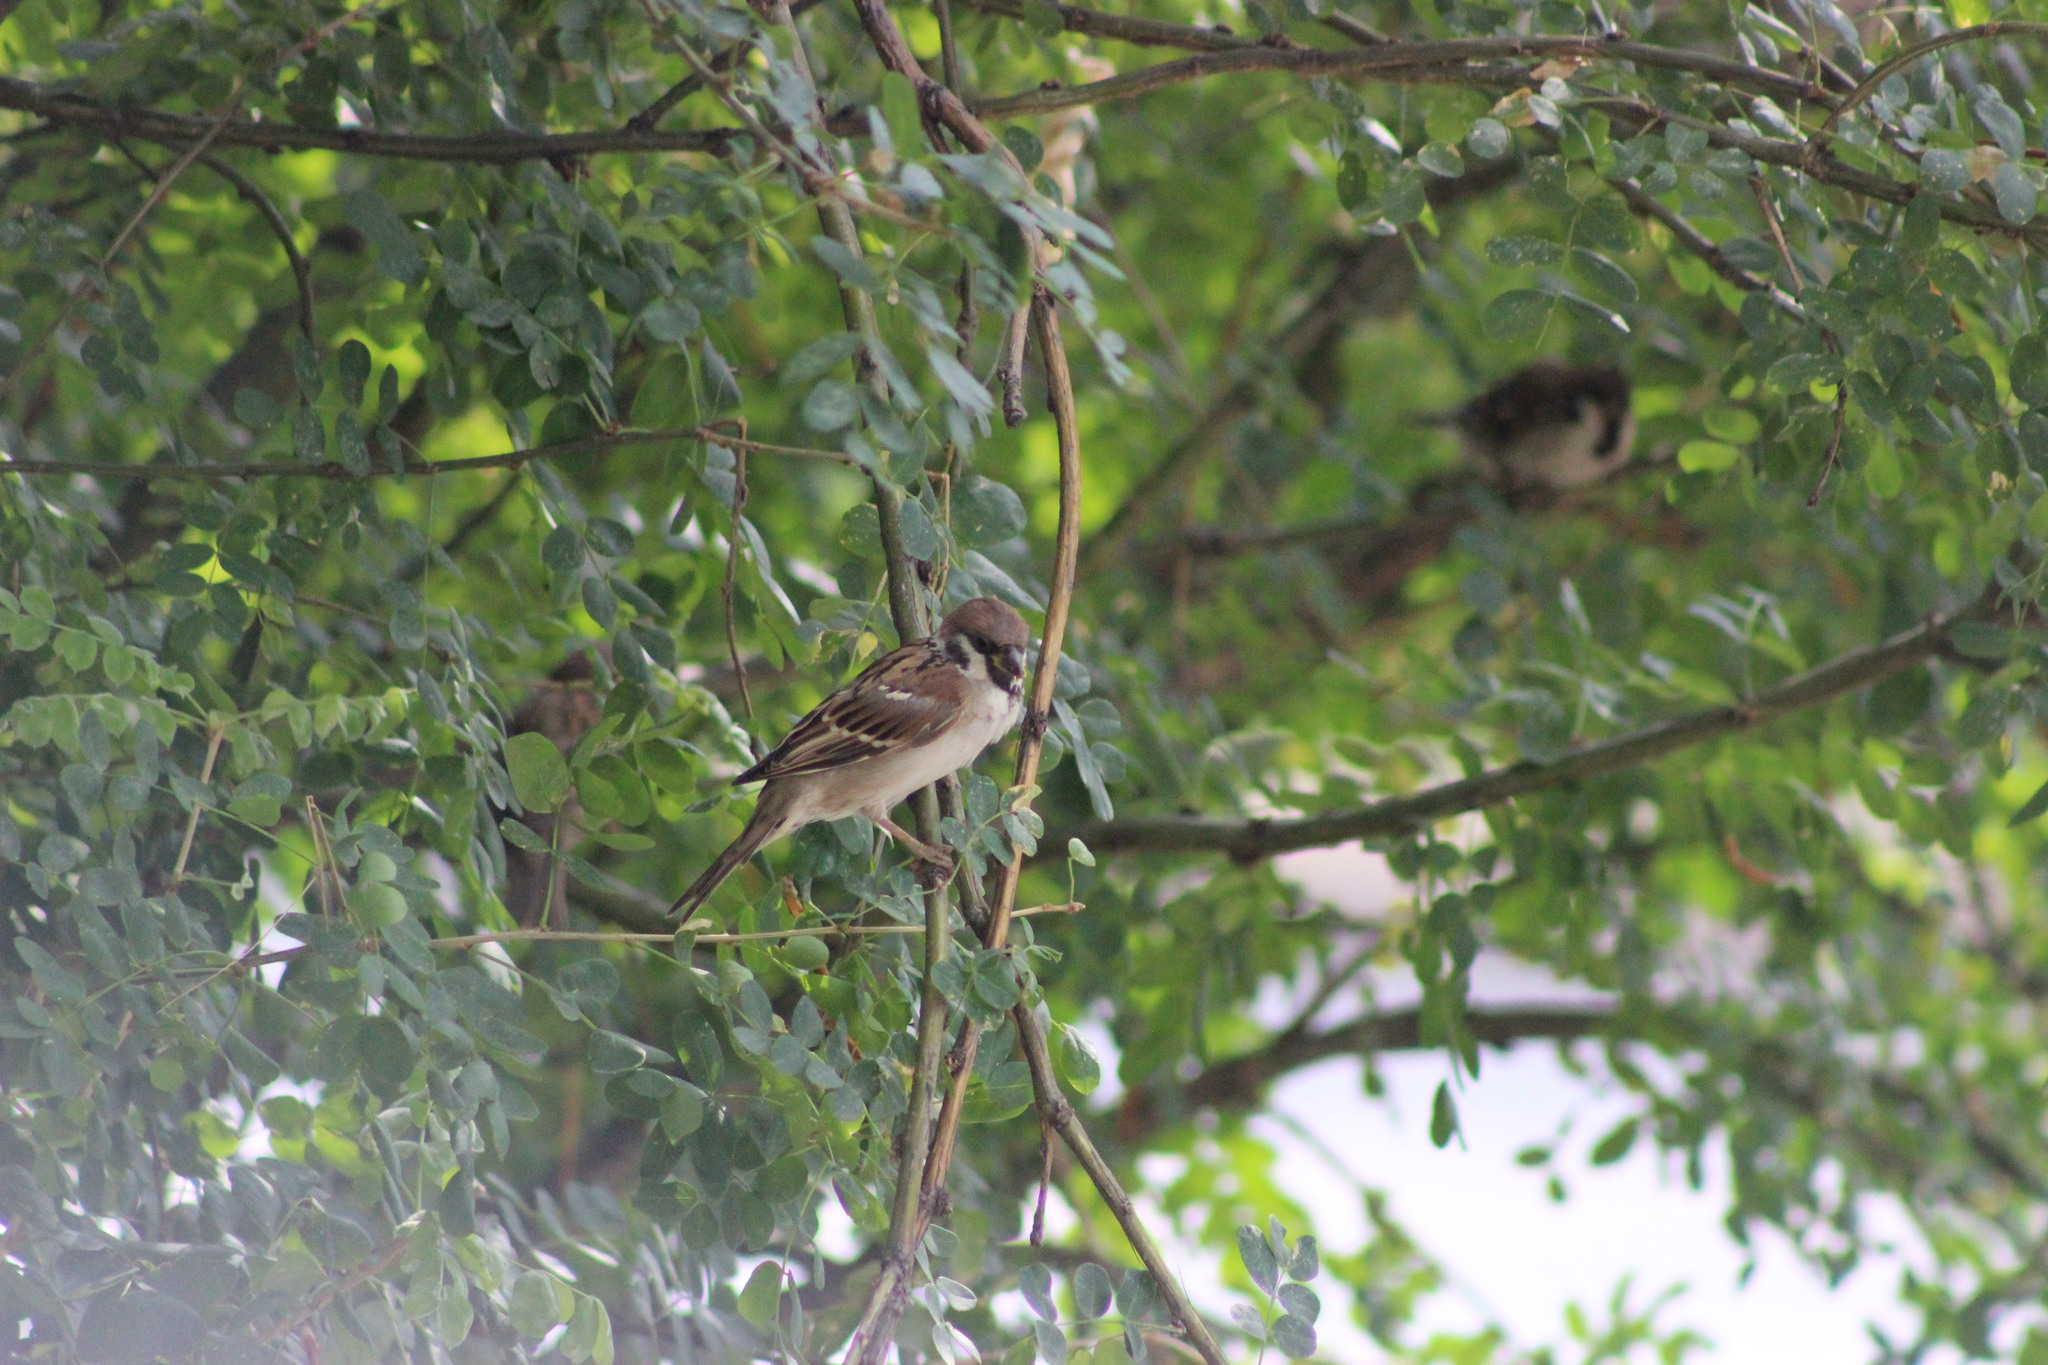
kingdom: Animalia
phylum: Chordata
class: Aves
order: Passeriformes
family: Passeridae
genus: Passer
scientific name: Passer montanus
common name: Eurasian tree sparrow
